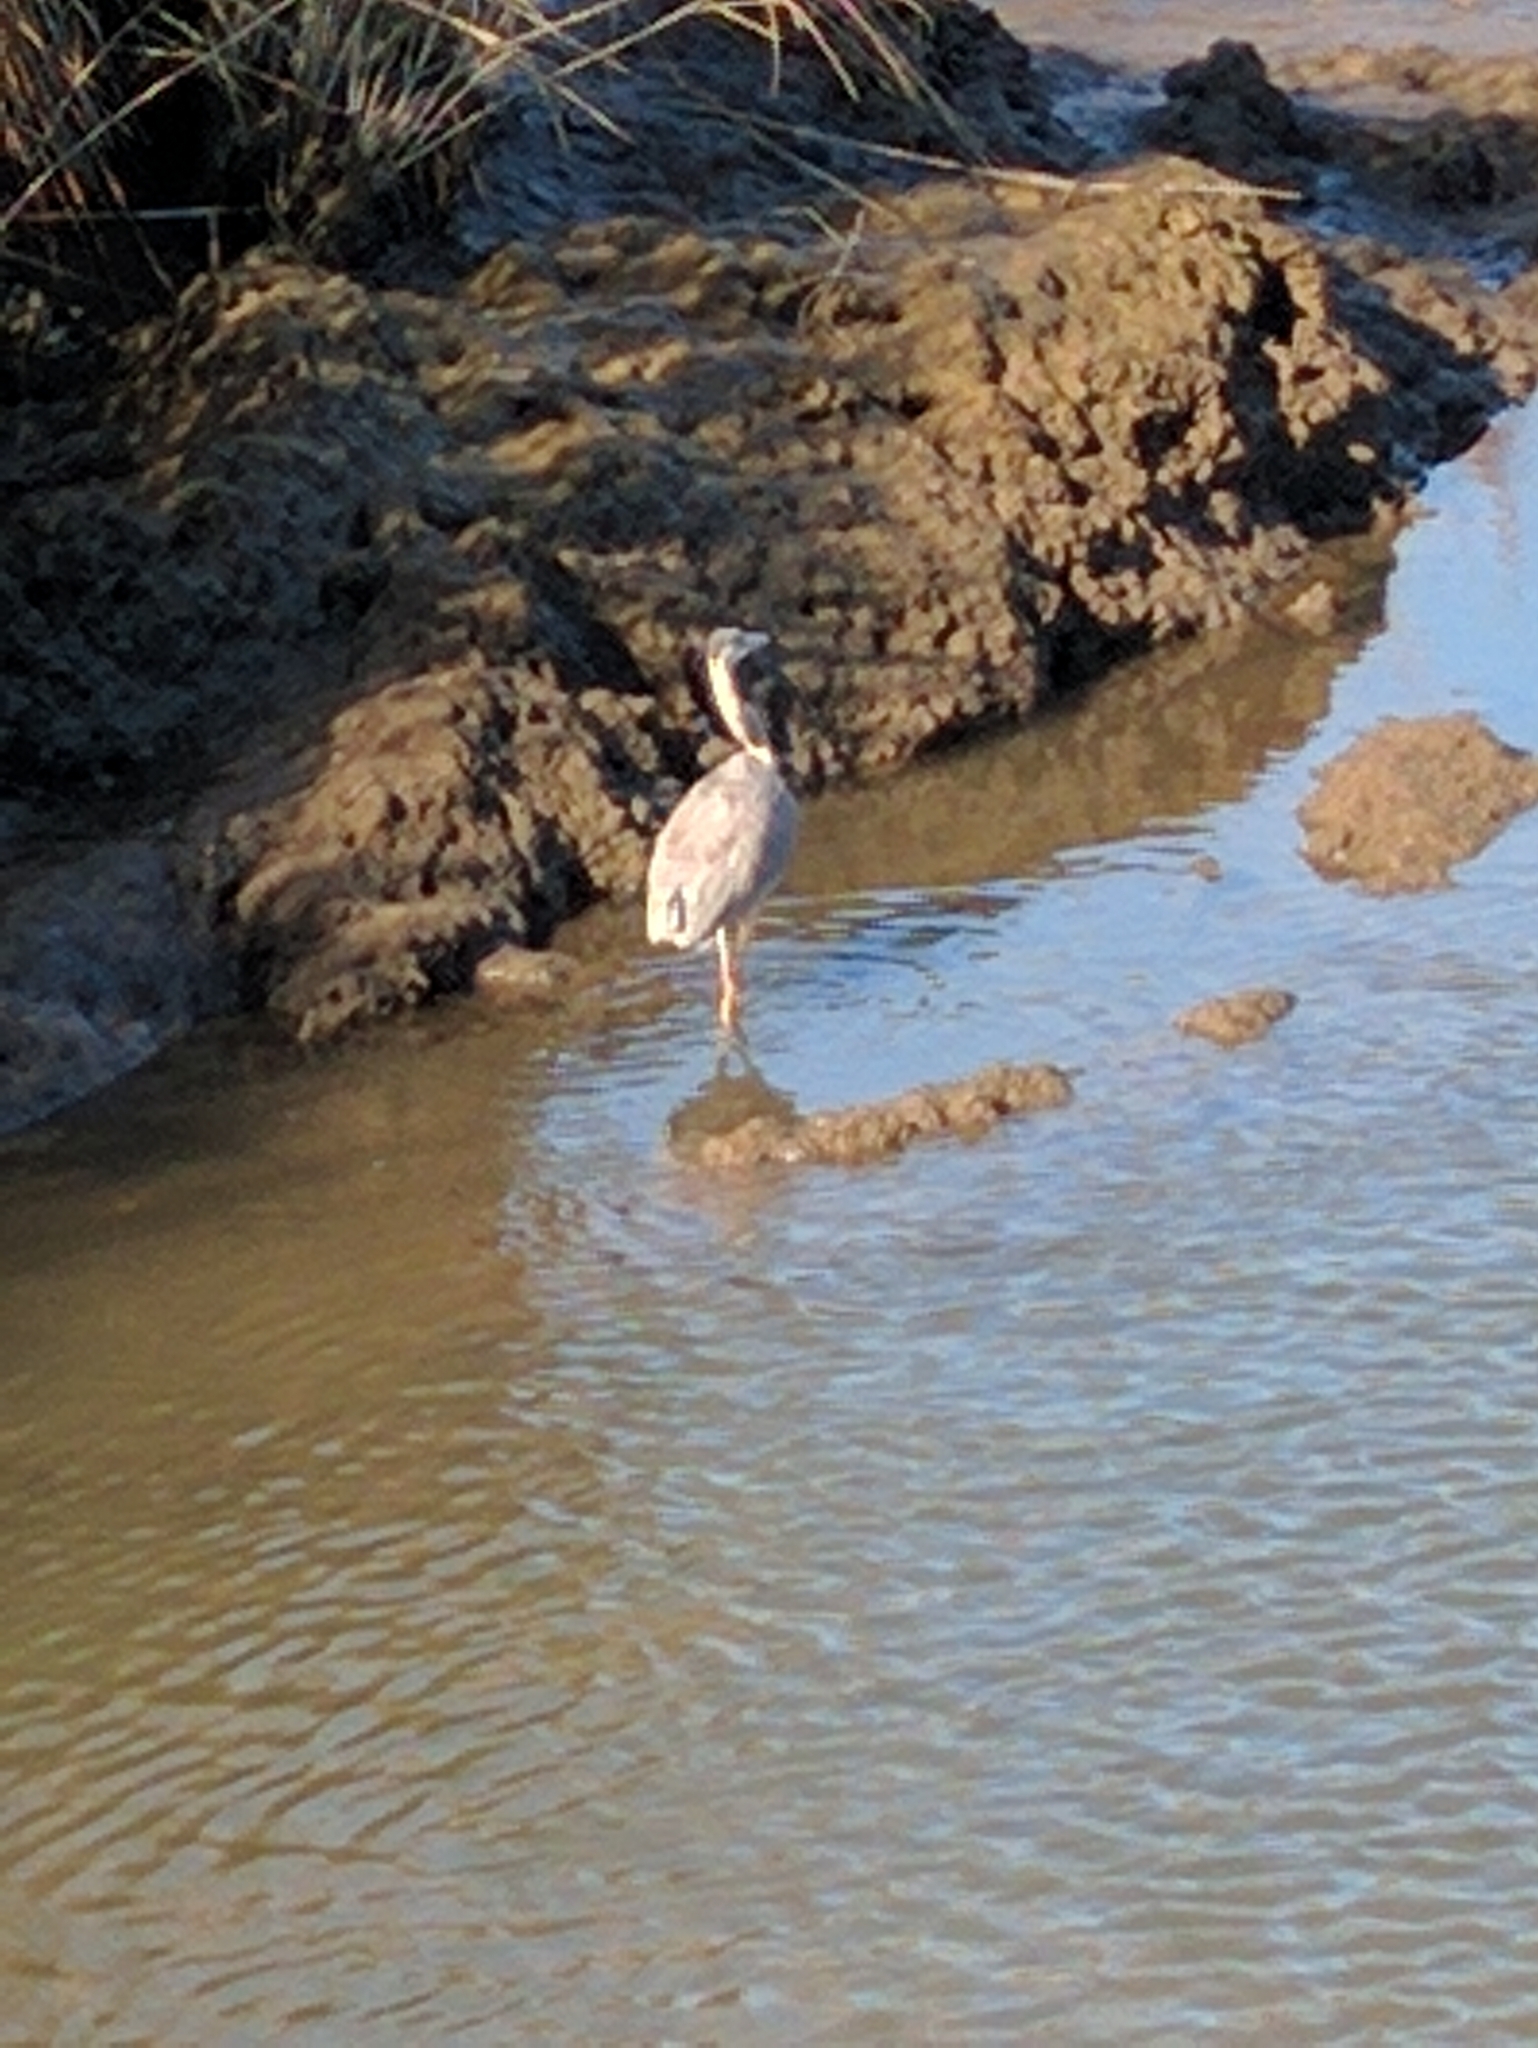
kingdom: Animalia
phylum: Chordata
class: Aves
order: Pelecaniformes
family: Ardeidae
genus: Ardea
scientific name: Ardea herodias
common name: Great blue heron
